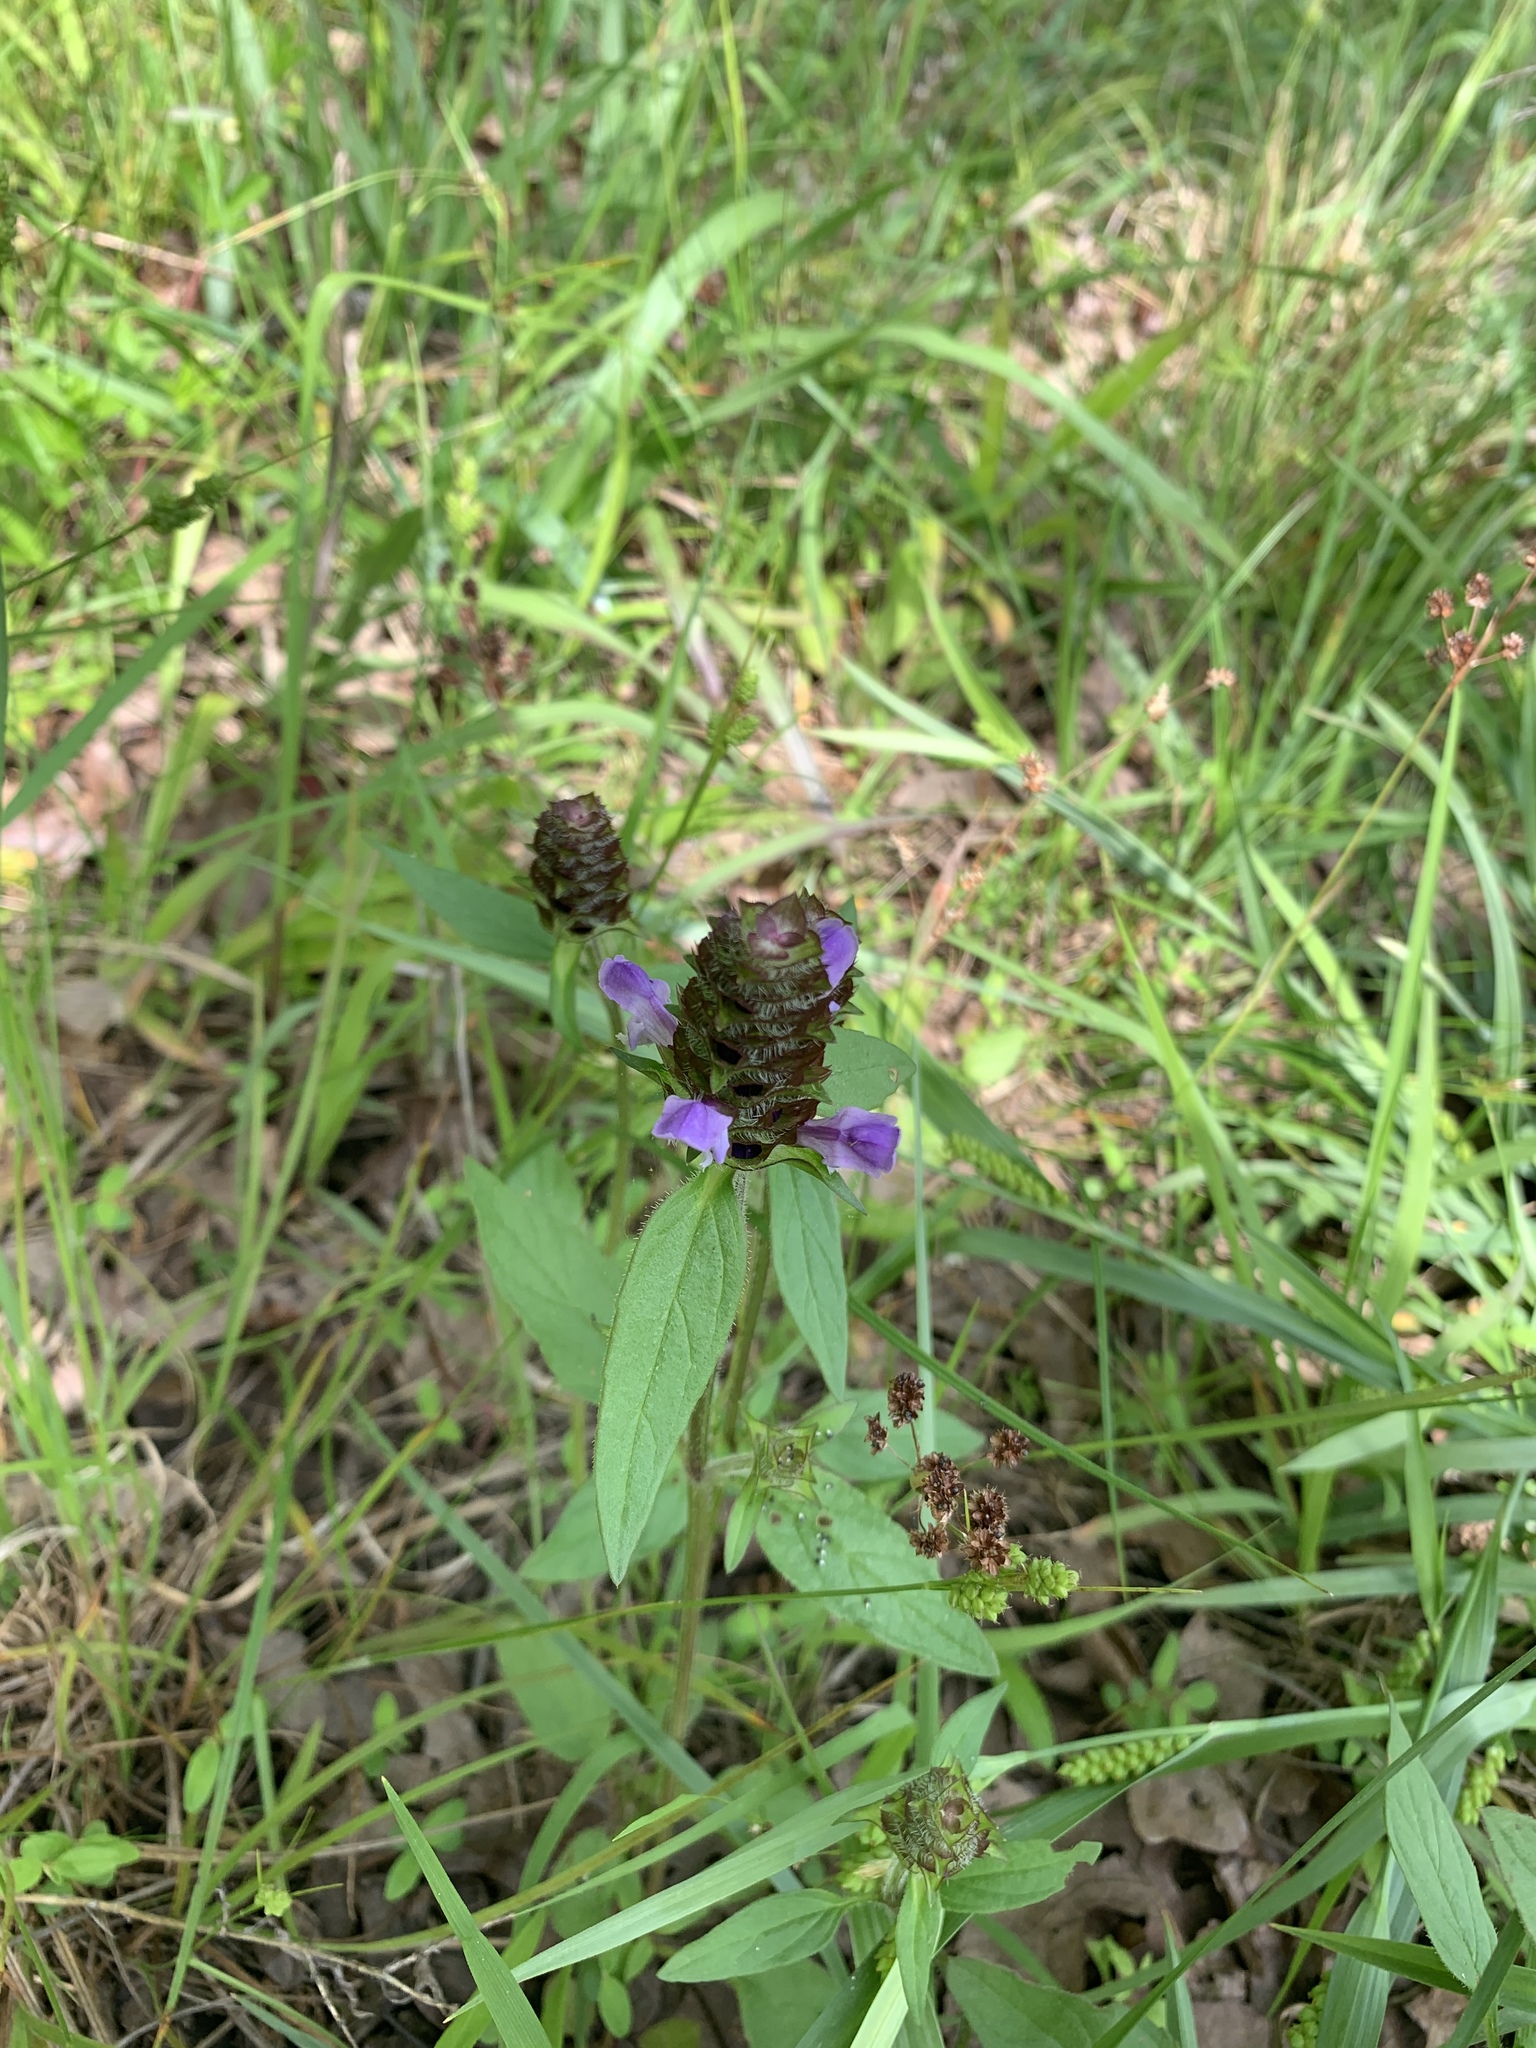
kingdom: Plantae
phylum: Tracheophyta
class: Magnoliopsida
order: Lamiales
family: Lamiaceae
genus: Prunella
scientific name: Prunella vulgaris
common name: Heal-all
